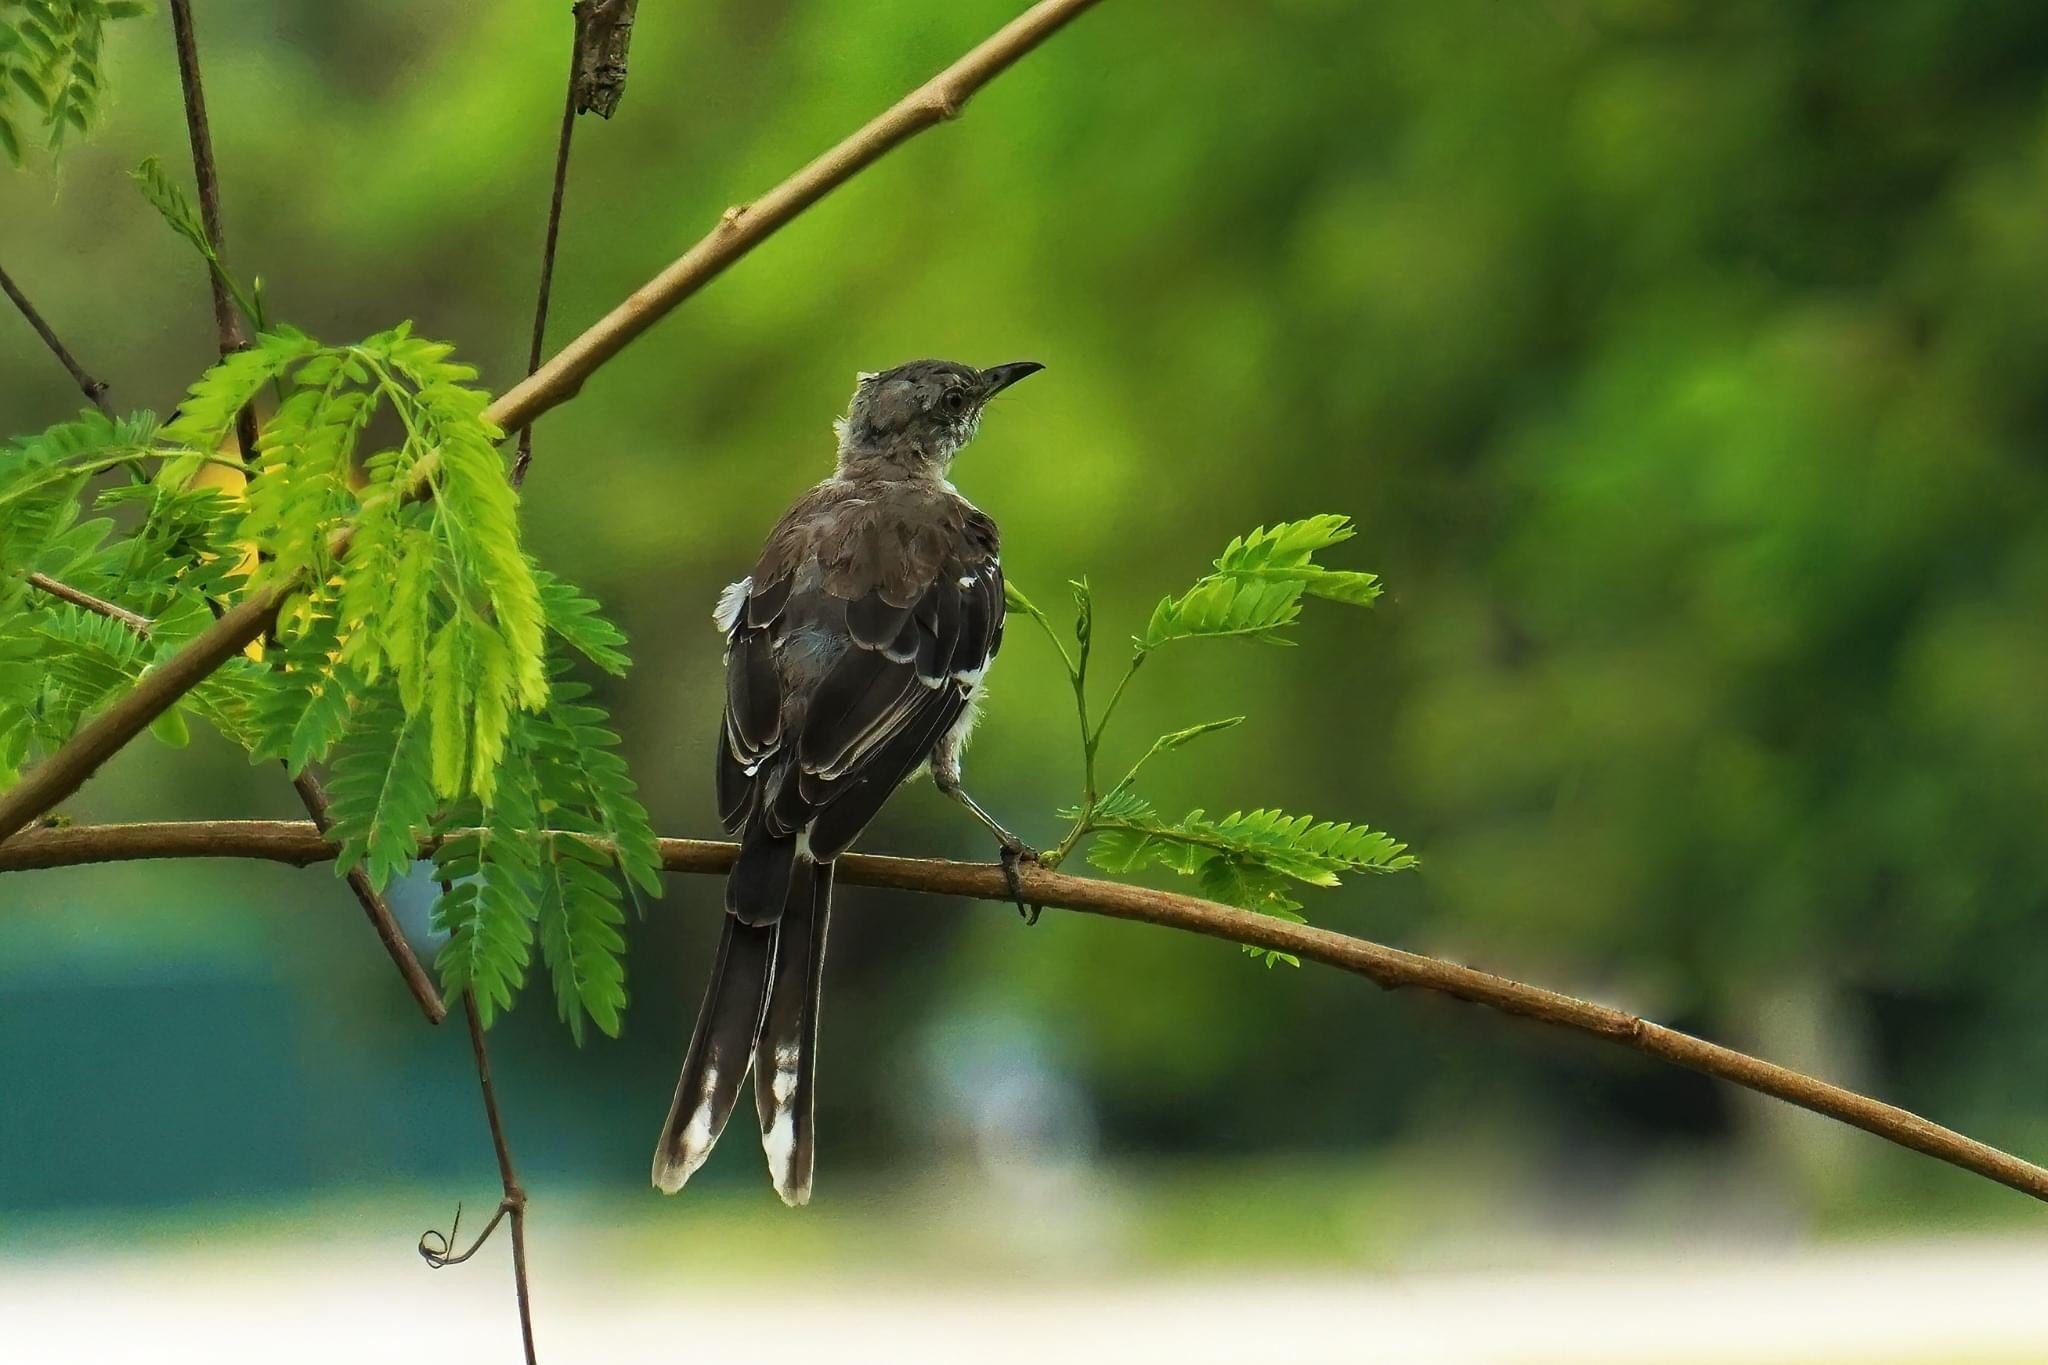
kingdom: Animalia
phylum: Chordata
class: Aves
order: Passeriformes
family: Mimidae
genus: Mimus
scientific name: Mimus polyglottos
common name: Northern mockingbird
